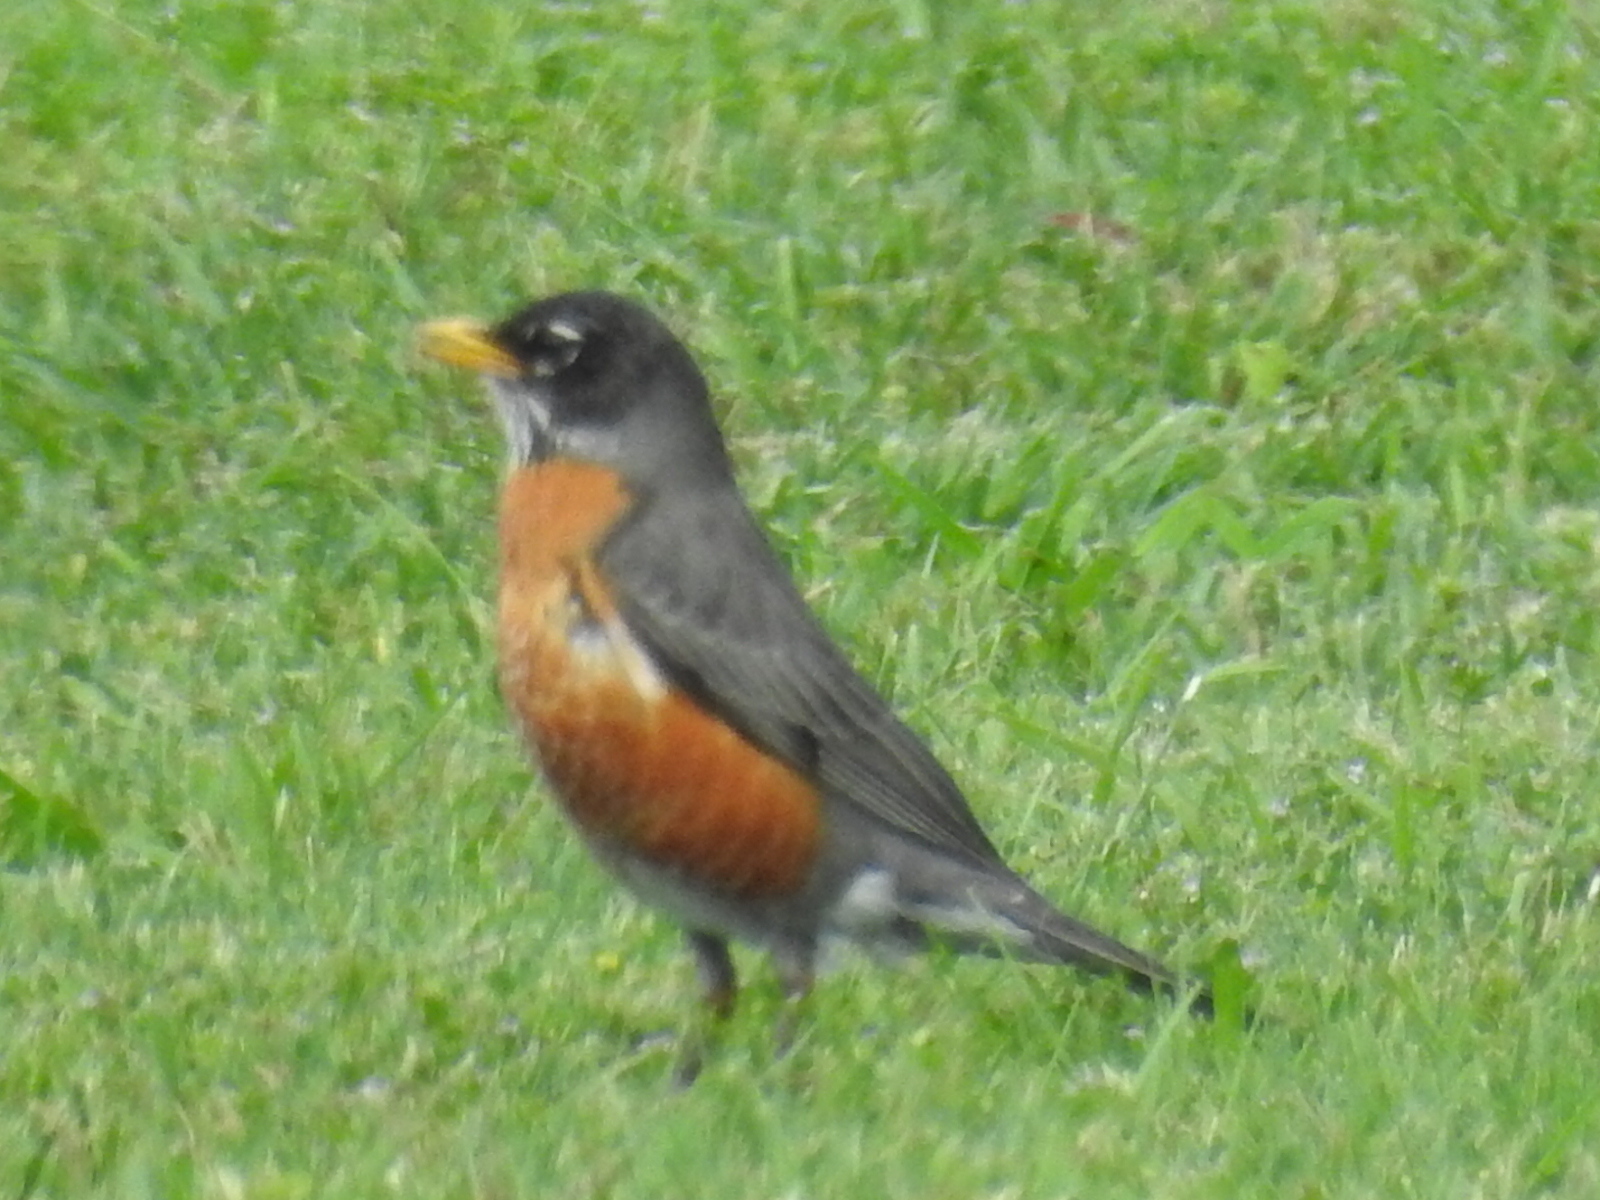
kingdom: Animalia
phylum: Chordata
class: Aves
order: Passeriformes
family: Turdidae
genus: Turdus
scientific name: Turdus migratorius
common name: American robin
